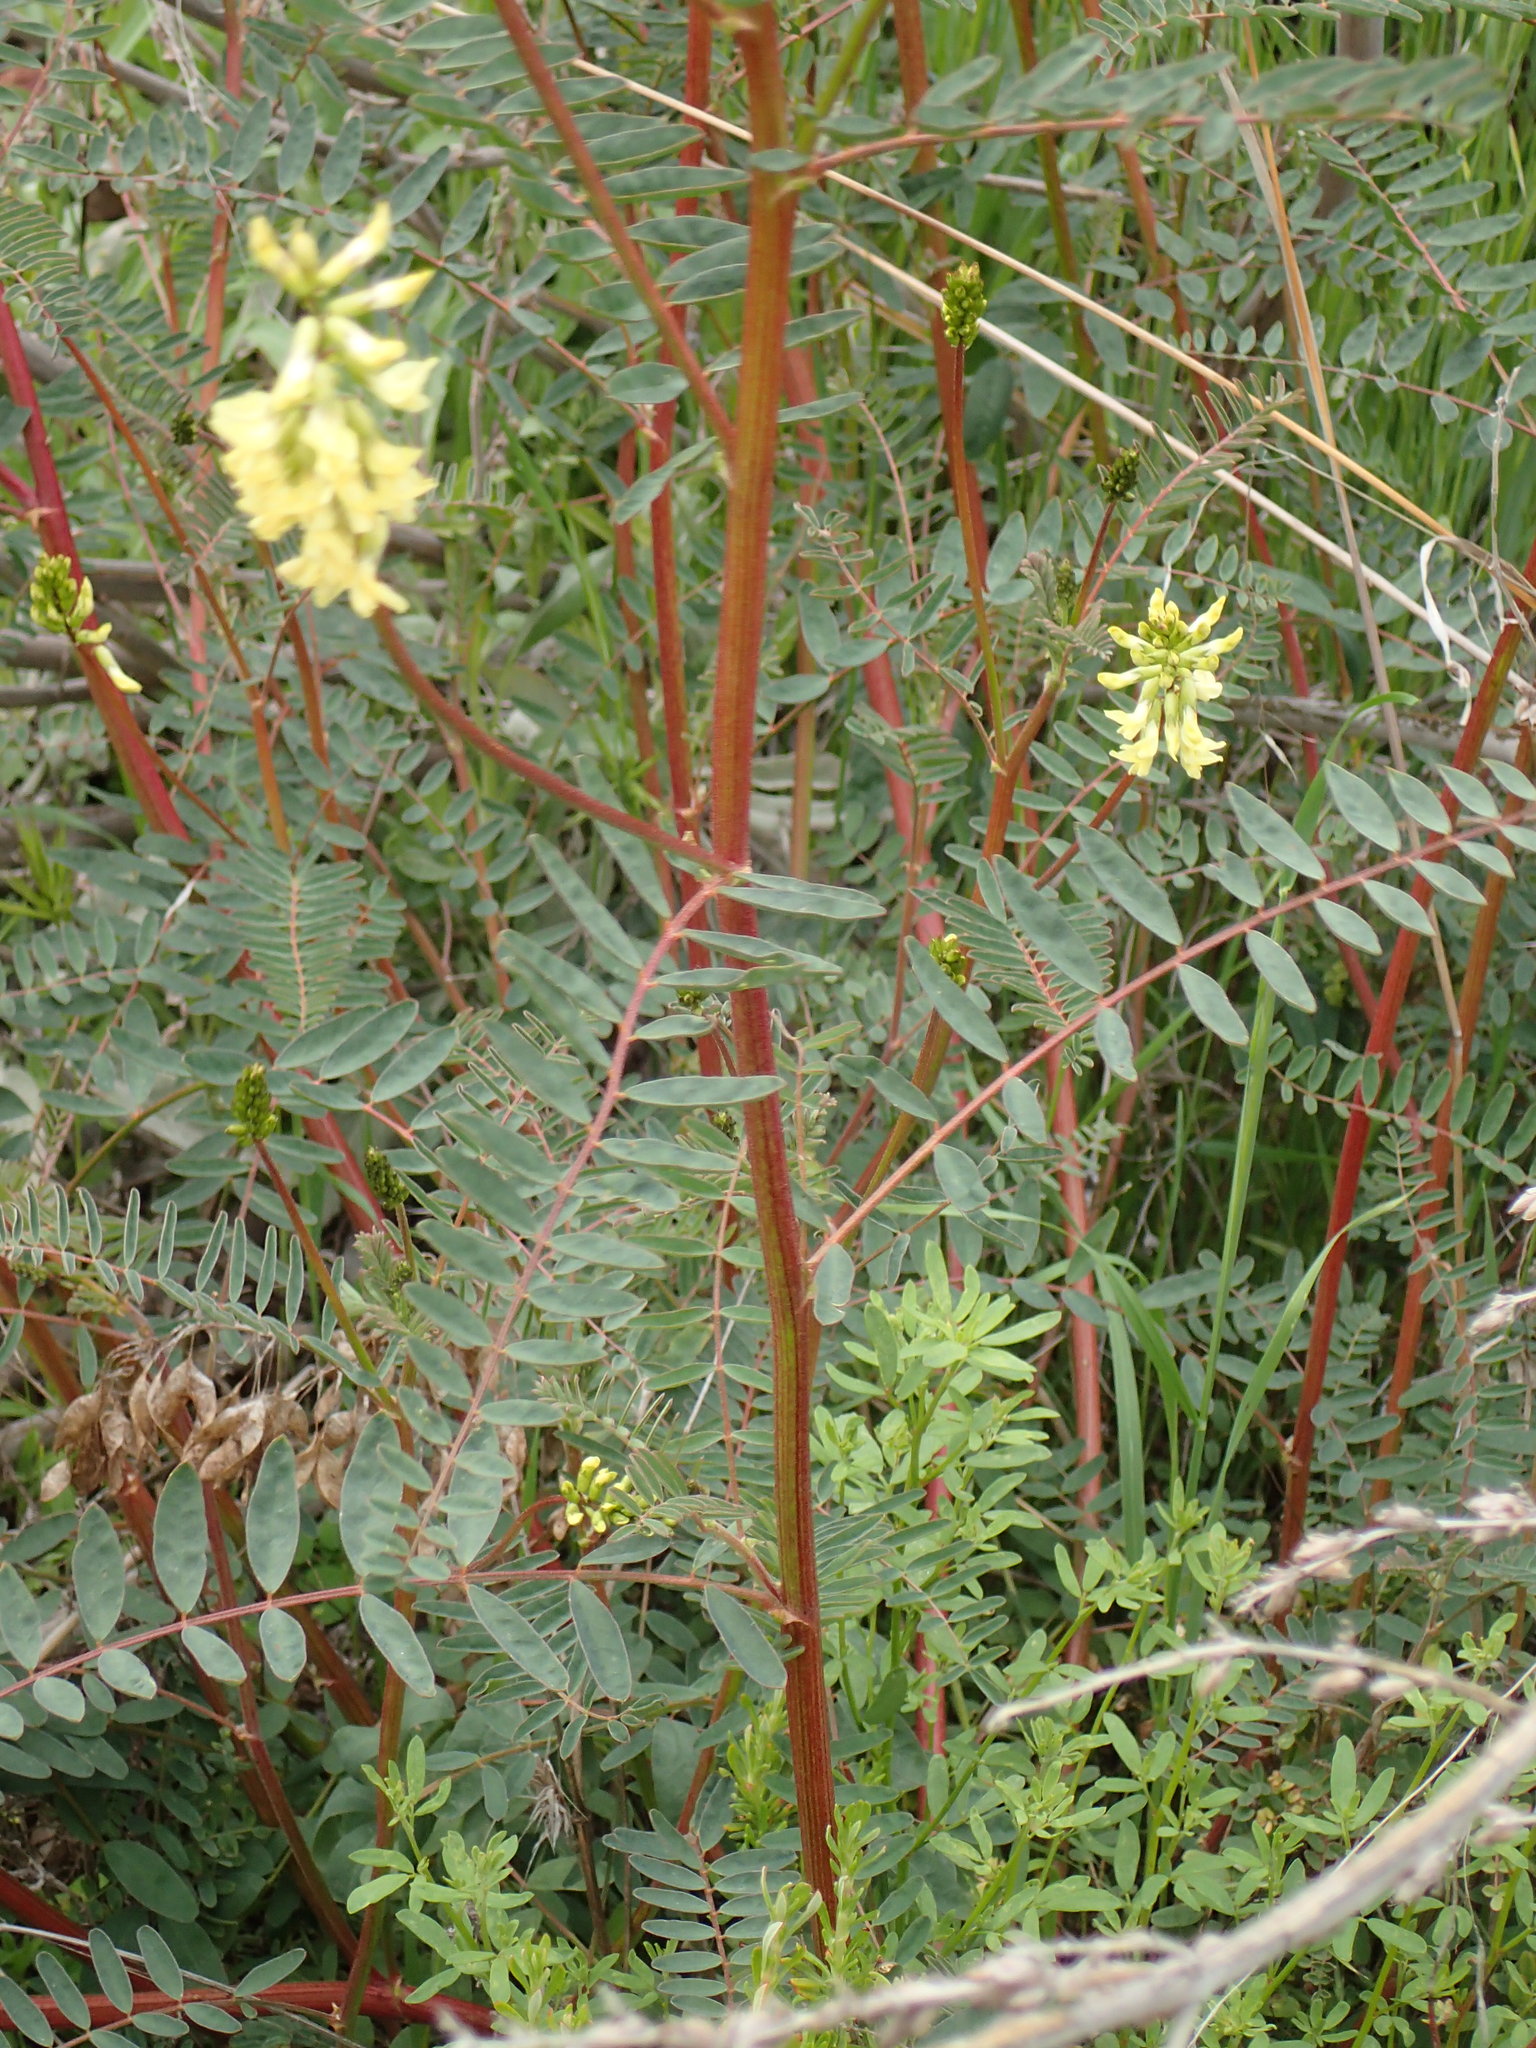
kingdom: Plantae
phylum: Tracheophyta
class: Magnoliopsida
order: Fabales
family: Fabaceae
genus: Astragalus
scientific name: Astragalus trichopodus
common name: Santa barbara milk-vetch
